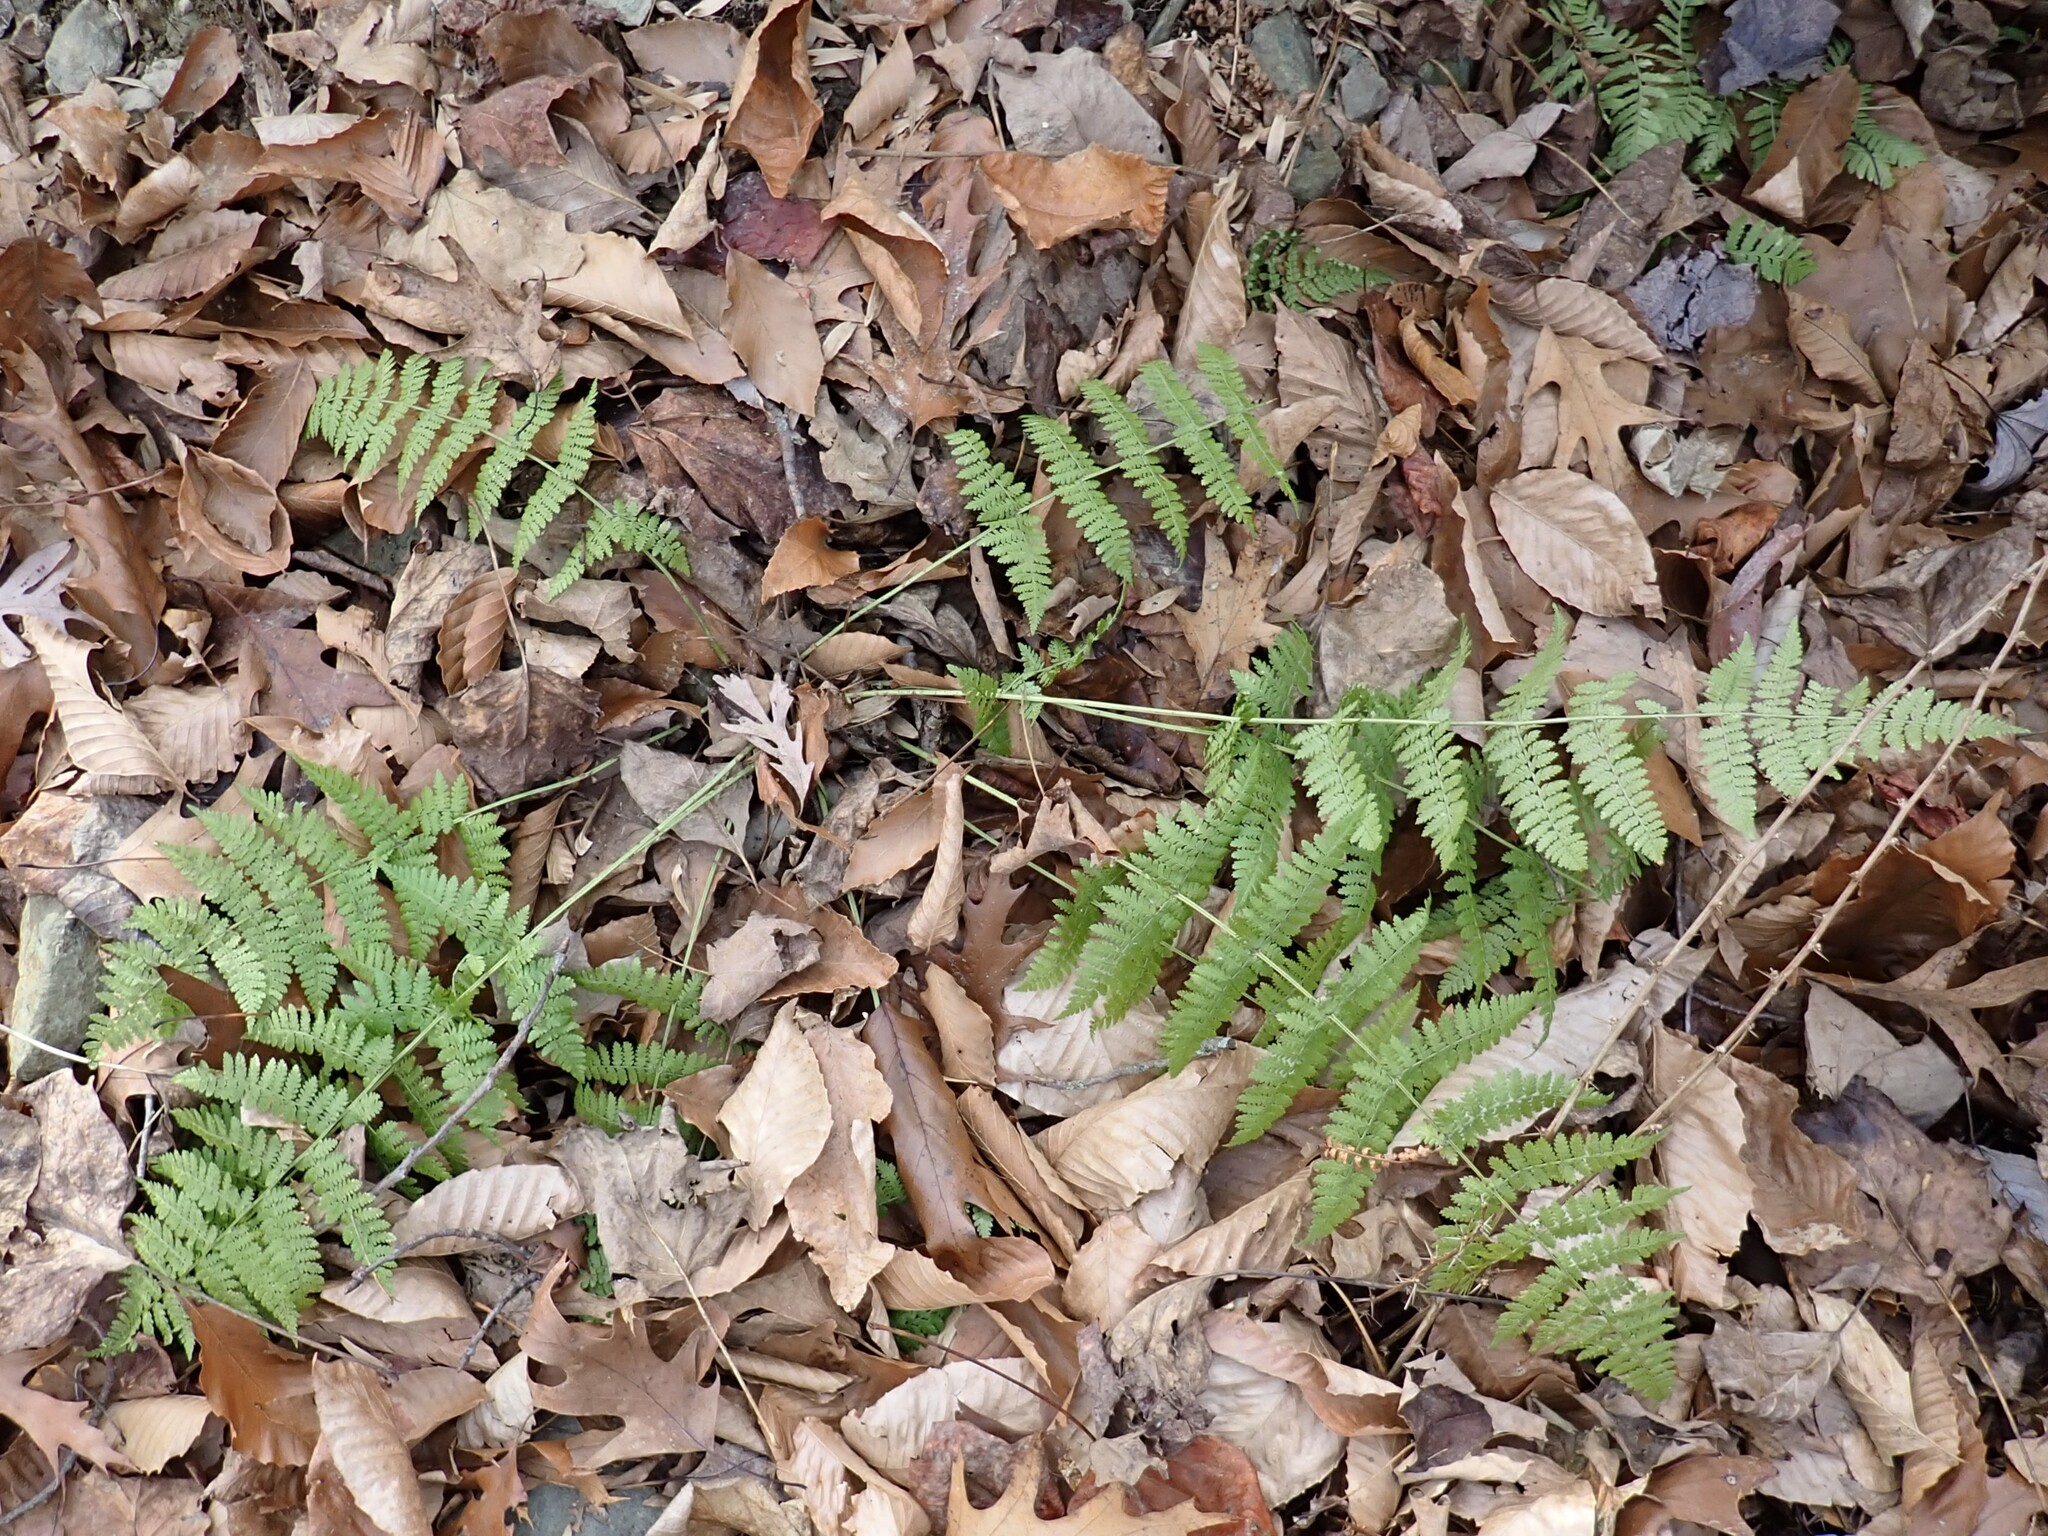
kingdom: Plantae
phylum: Tracheophyta
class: Polypodiopsida
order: Polypodiales
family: Dryopteridaceae
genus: Dryopteris
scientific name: Dryopteris intermedia
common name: Evergreen wood fern
